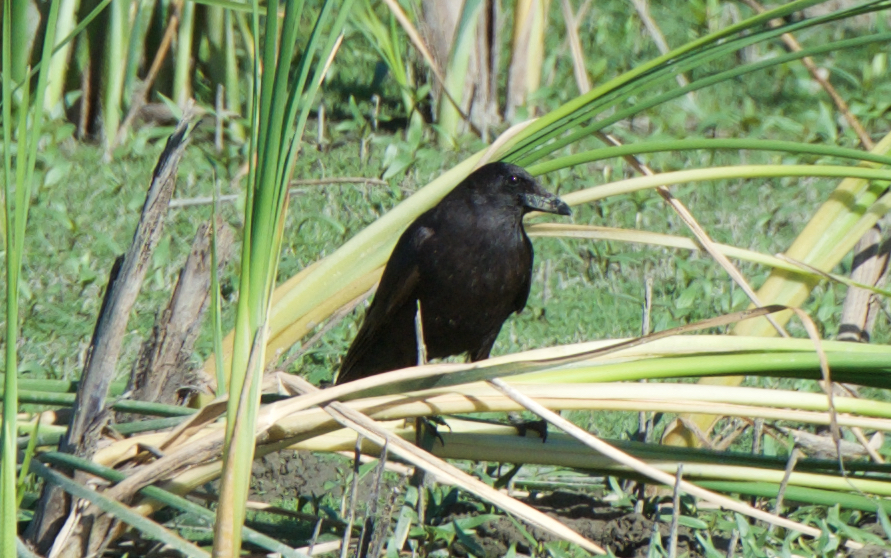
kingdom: Animalia
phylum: Chordata
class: Aves
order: Passeriformes
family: Corvidae
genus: Corvus
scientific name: Corvus brachyrhynchos
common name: American crow
